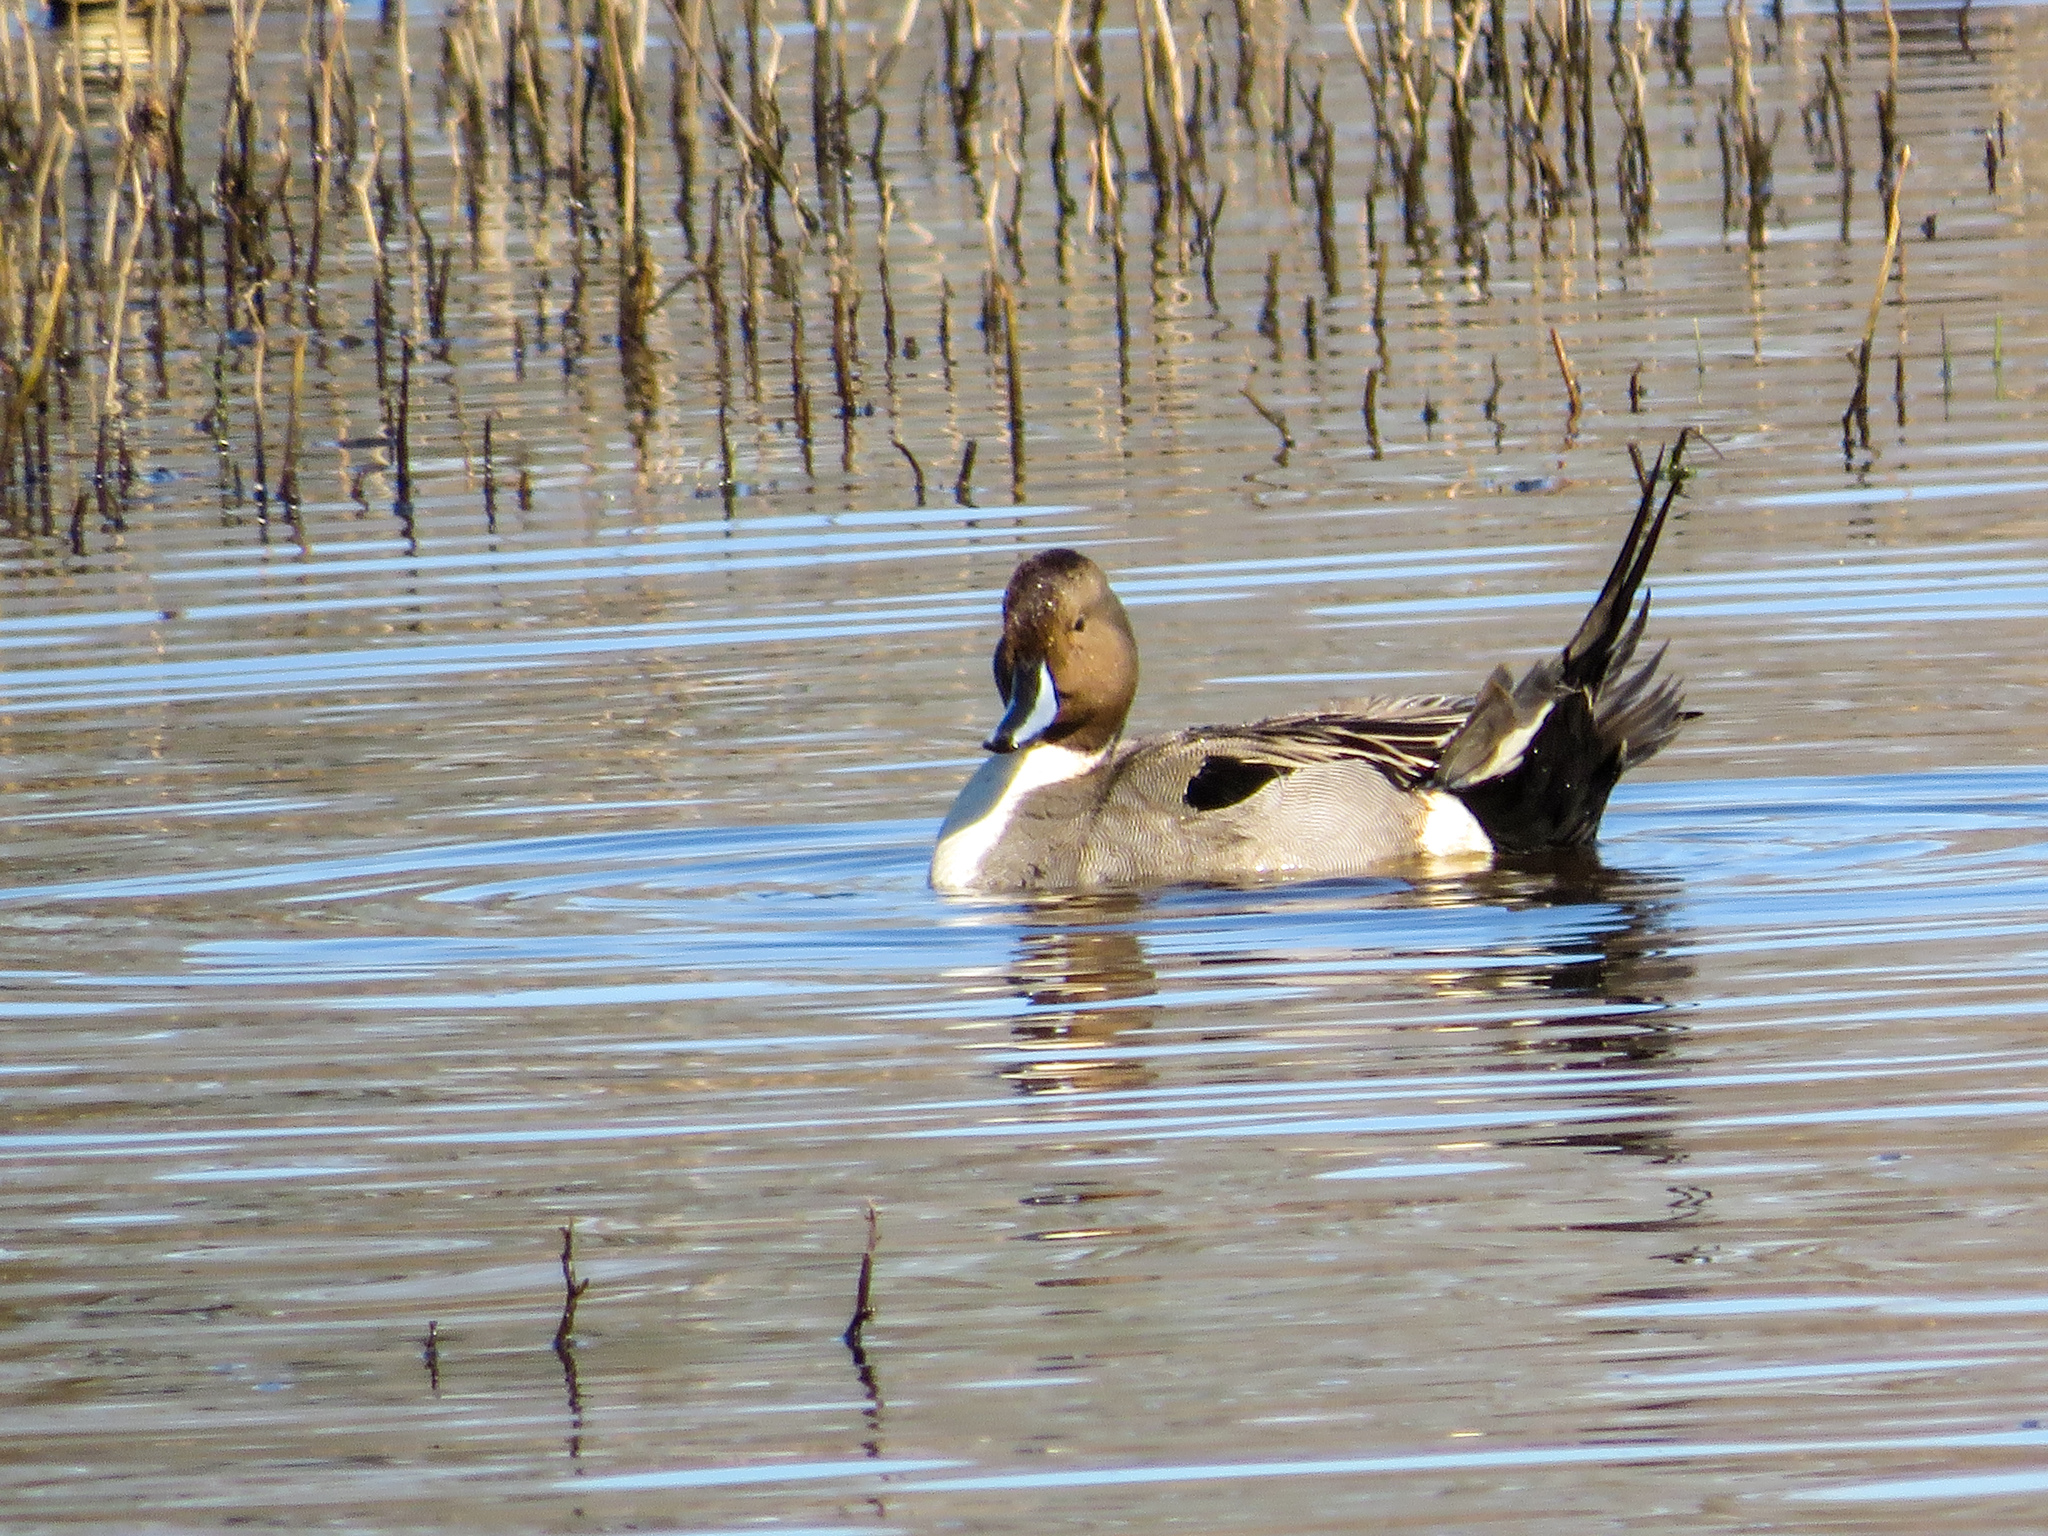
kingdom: Animalia
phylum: Chordata
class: Aves
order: Anseriformes
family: Anatidae
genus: Anas
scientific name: Anas acuta
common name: Northern pintail
